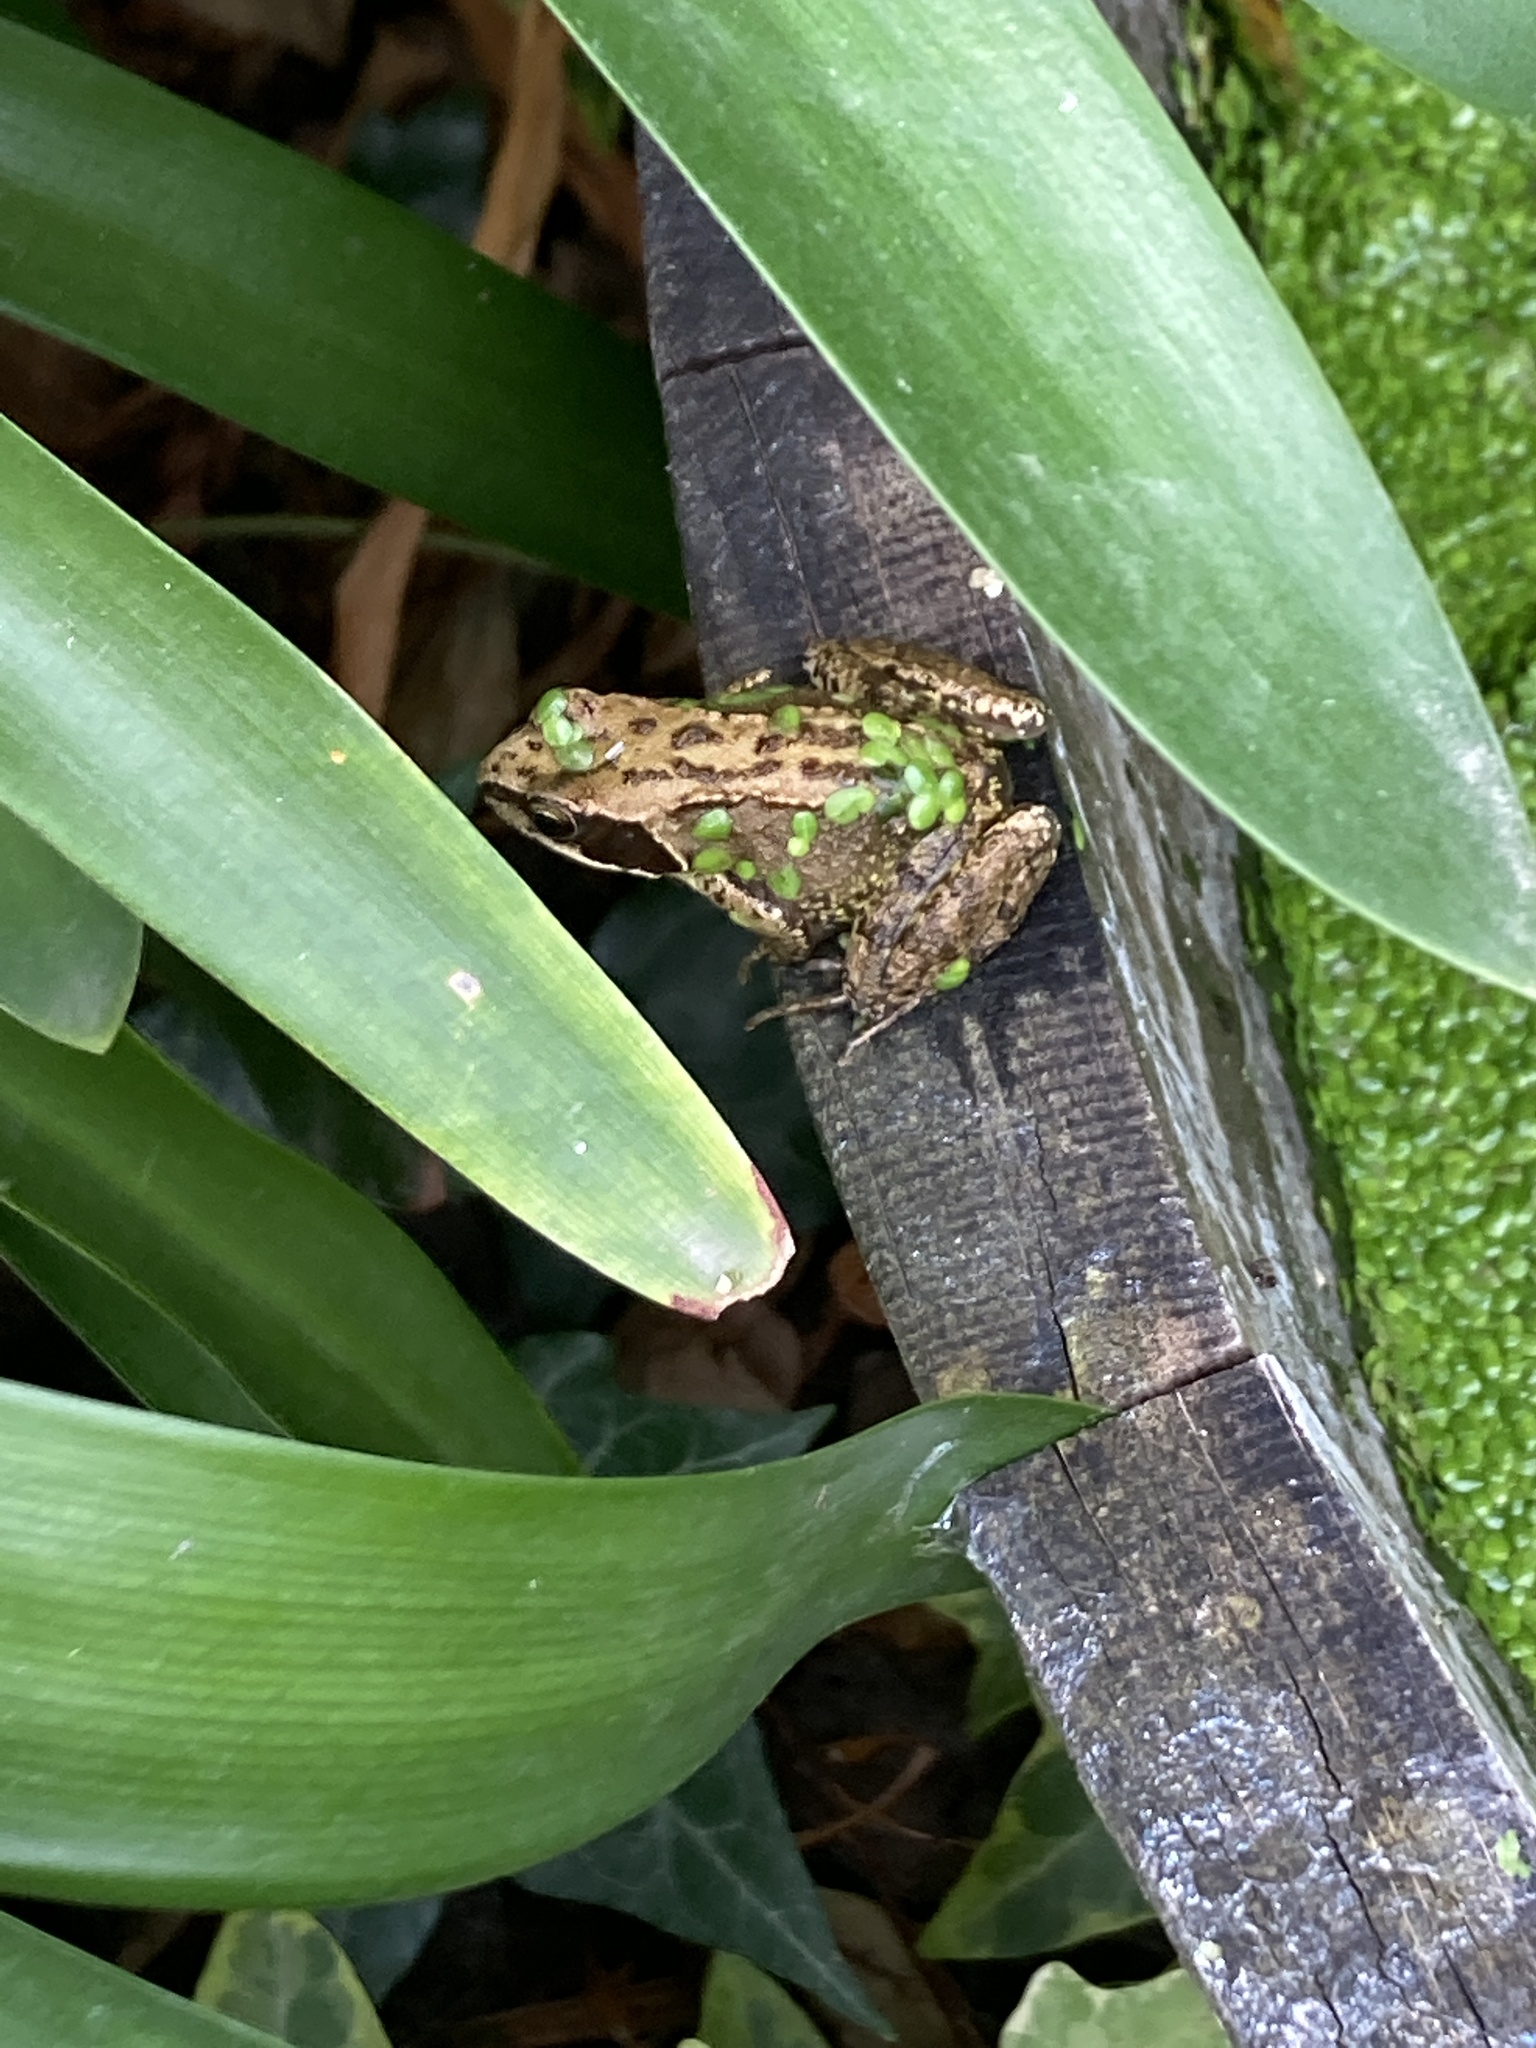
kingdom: Animalia
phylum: Chordata
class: Amphibia
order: Anura
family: Ranidae
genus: Rana
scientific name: Rana temporaria
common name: Common frog
